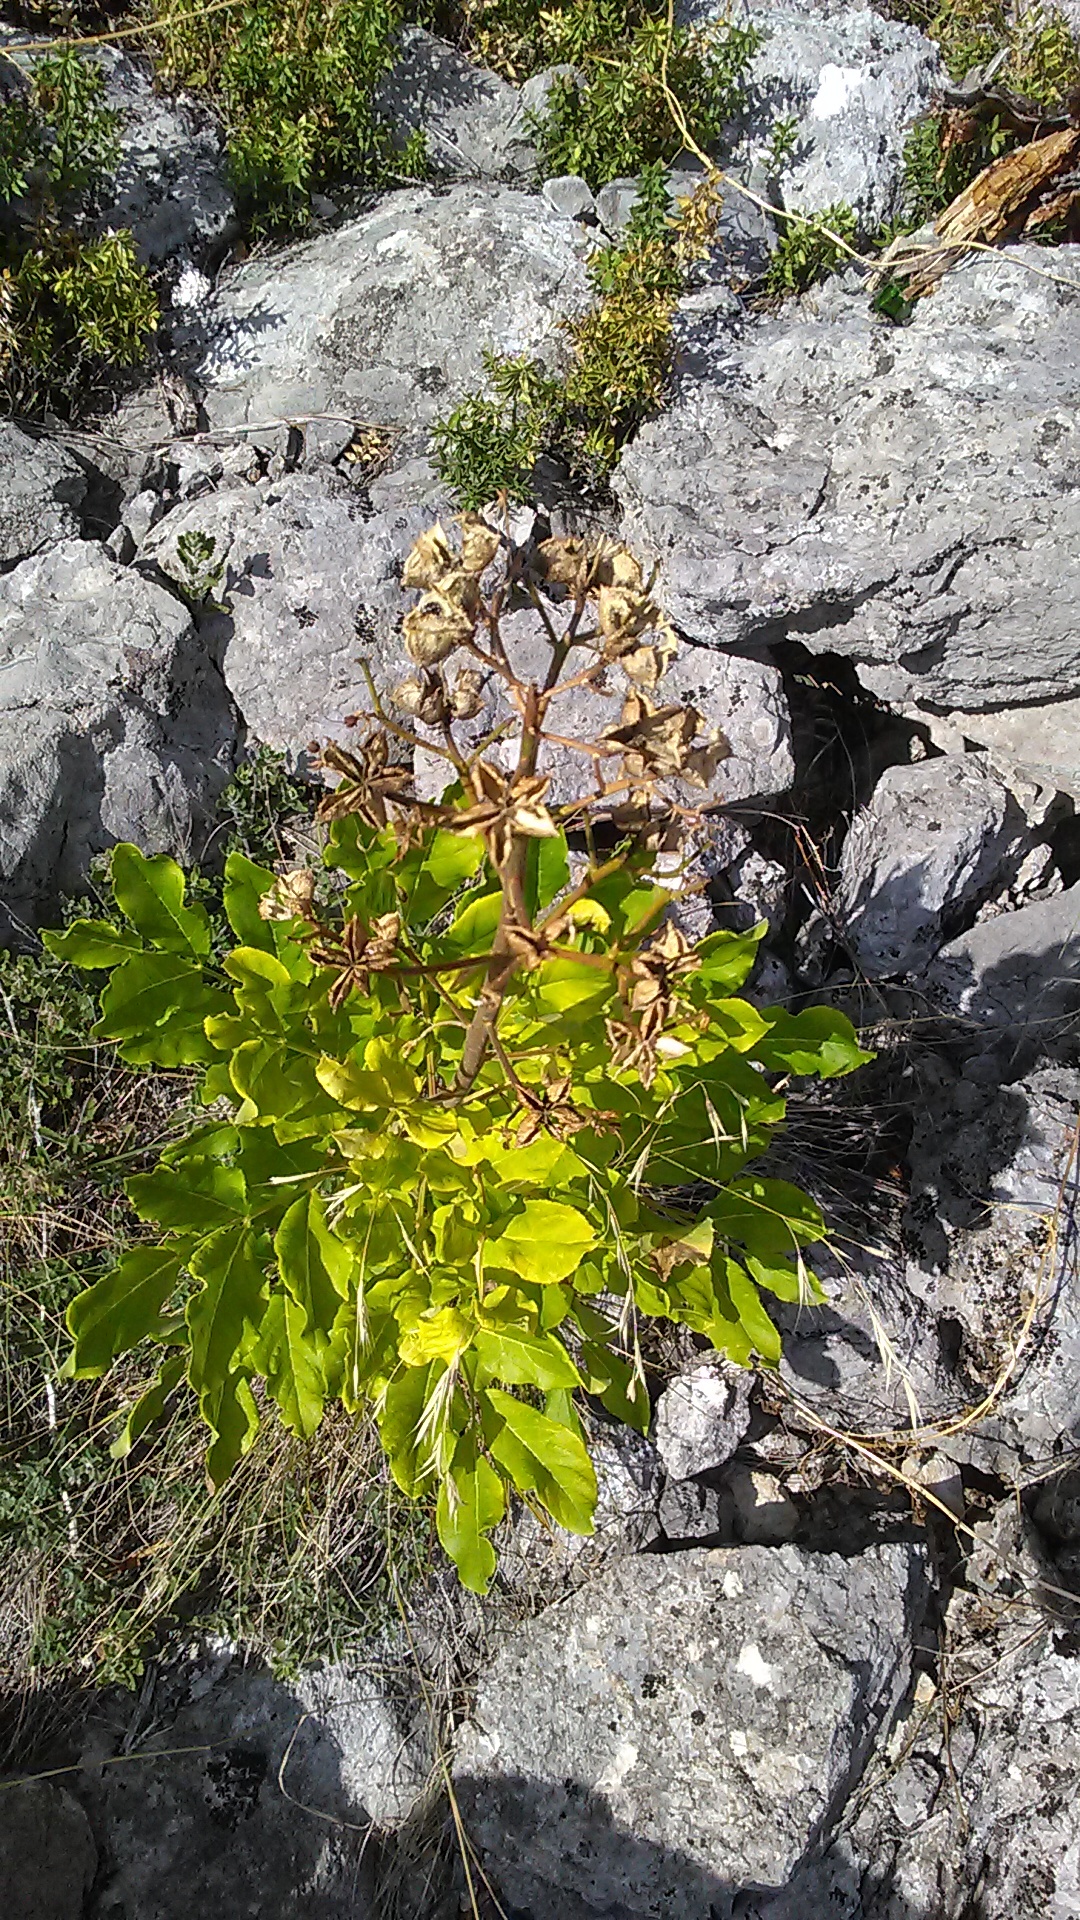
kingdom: Plantae
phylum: Tracheophyta
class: Magnoliopsida
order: Sapindales
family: Rutaceae
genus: Dictamnus
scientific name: Dictamnus albus
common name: Gasplant
